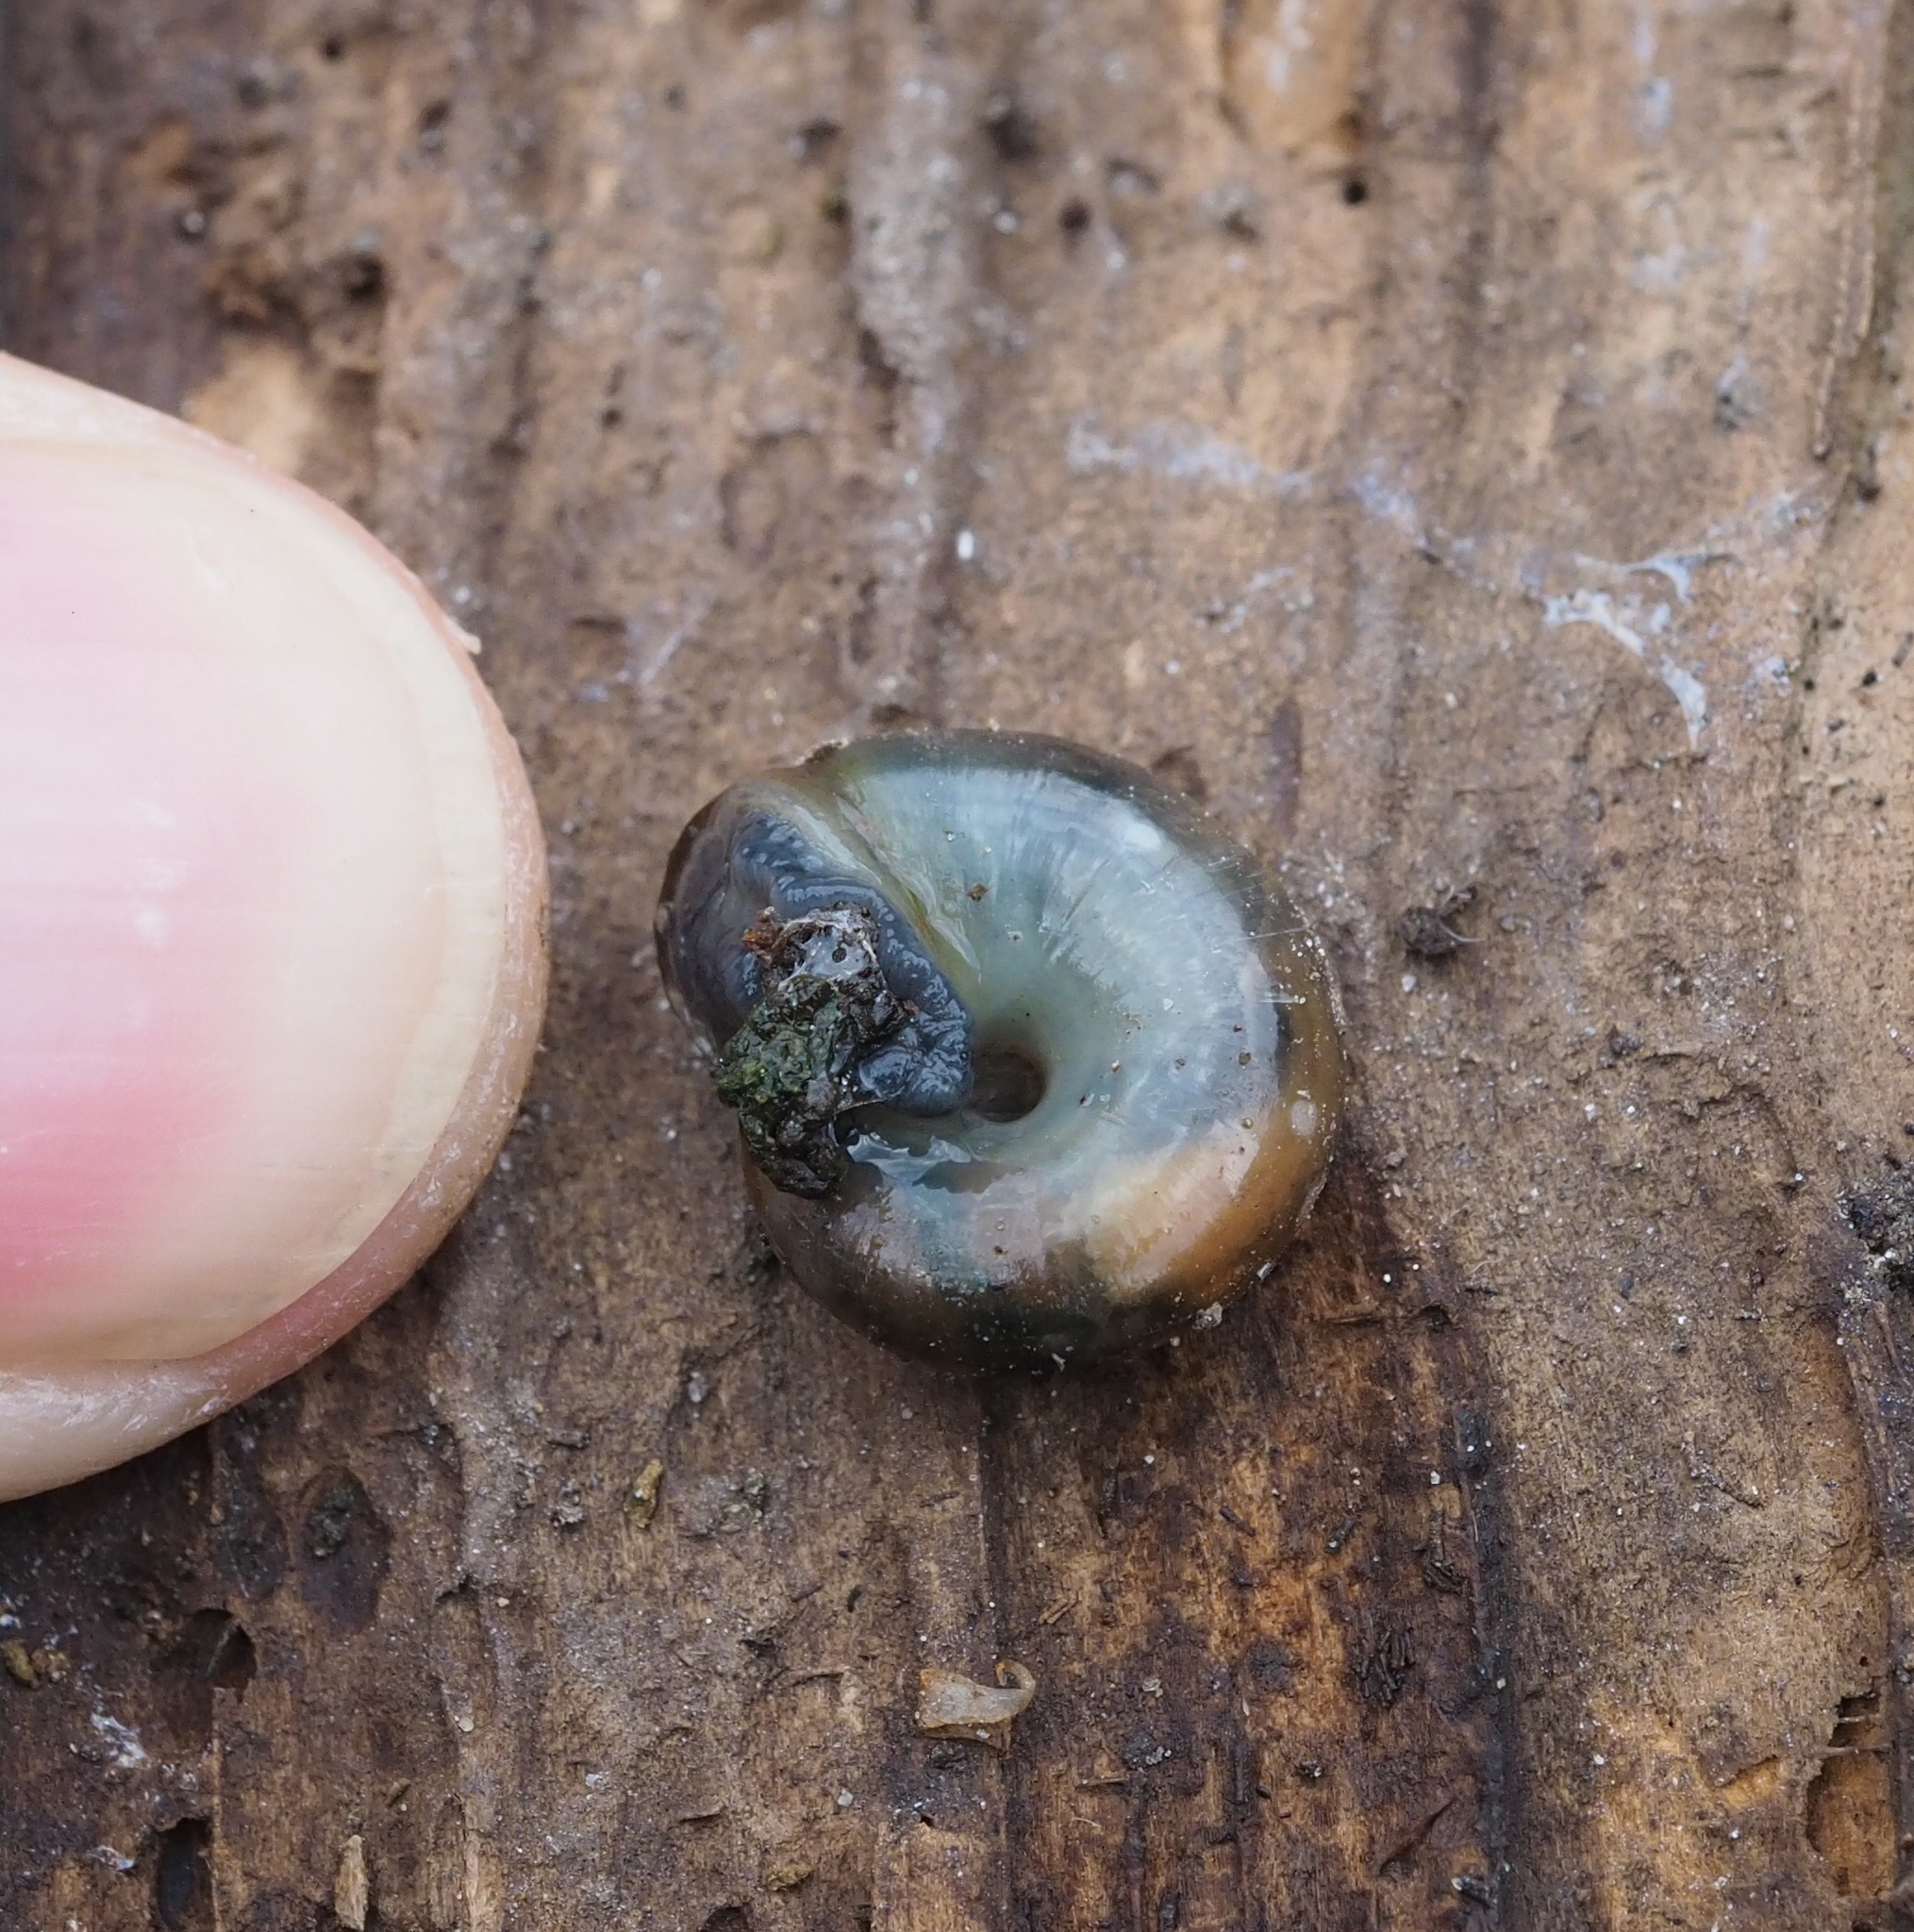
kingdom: Animalia
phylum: Mollusca
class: Gastropoda
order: Stylommatophora
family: Oxychilidae
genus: Oxychilus
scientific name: Oxychilus draparnaudi
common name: Draparnaud's glass snail
